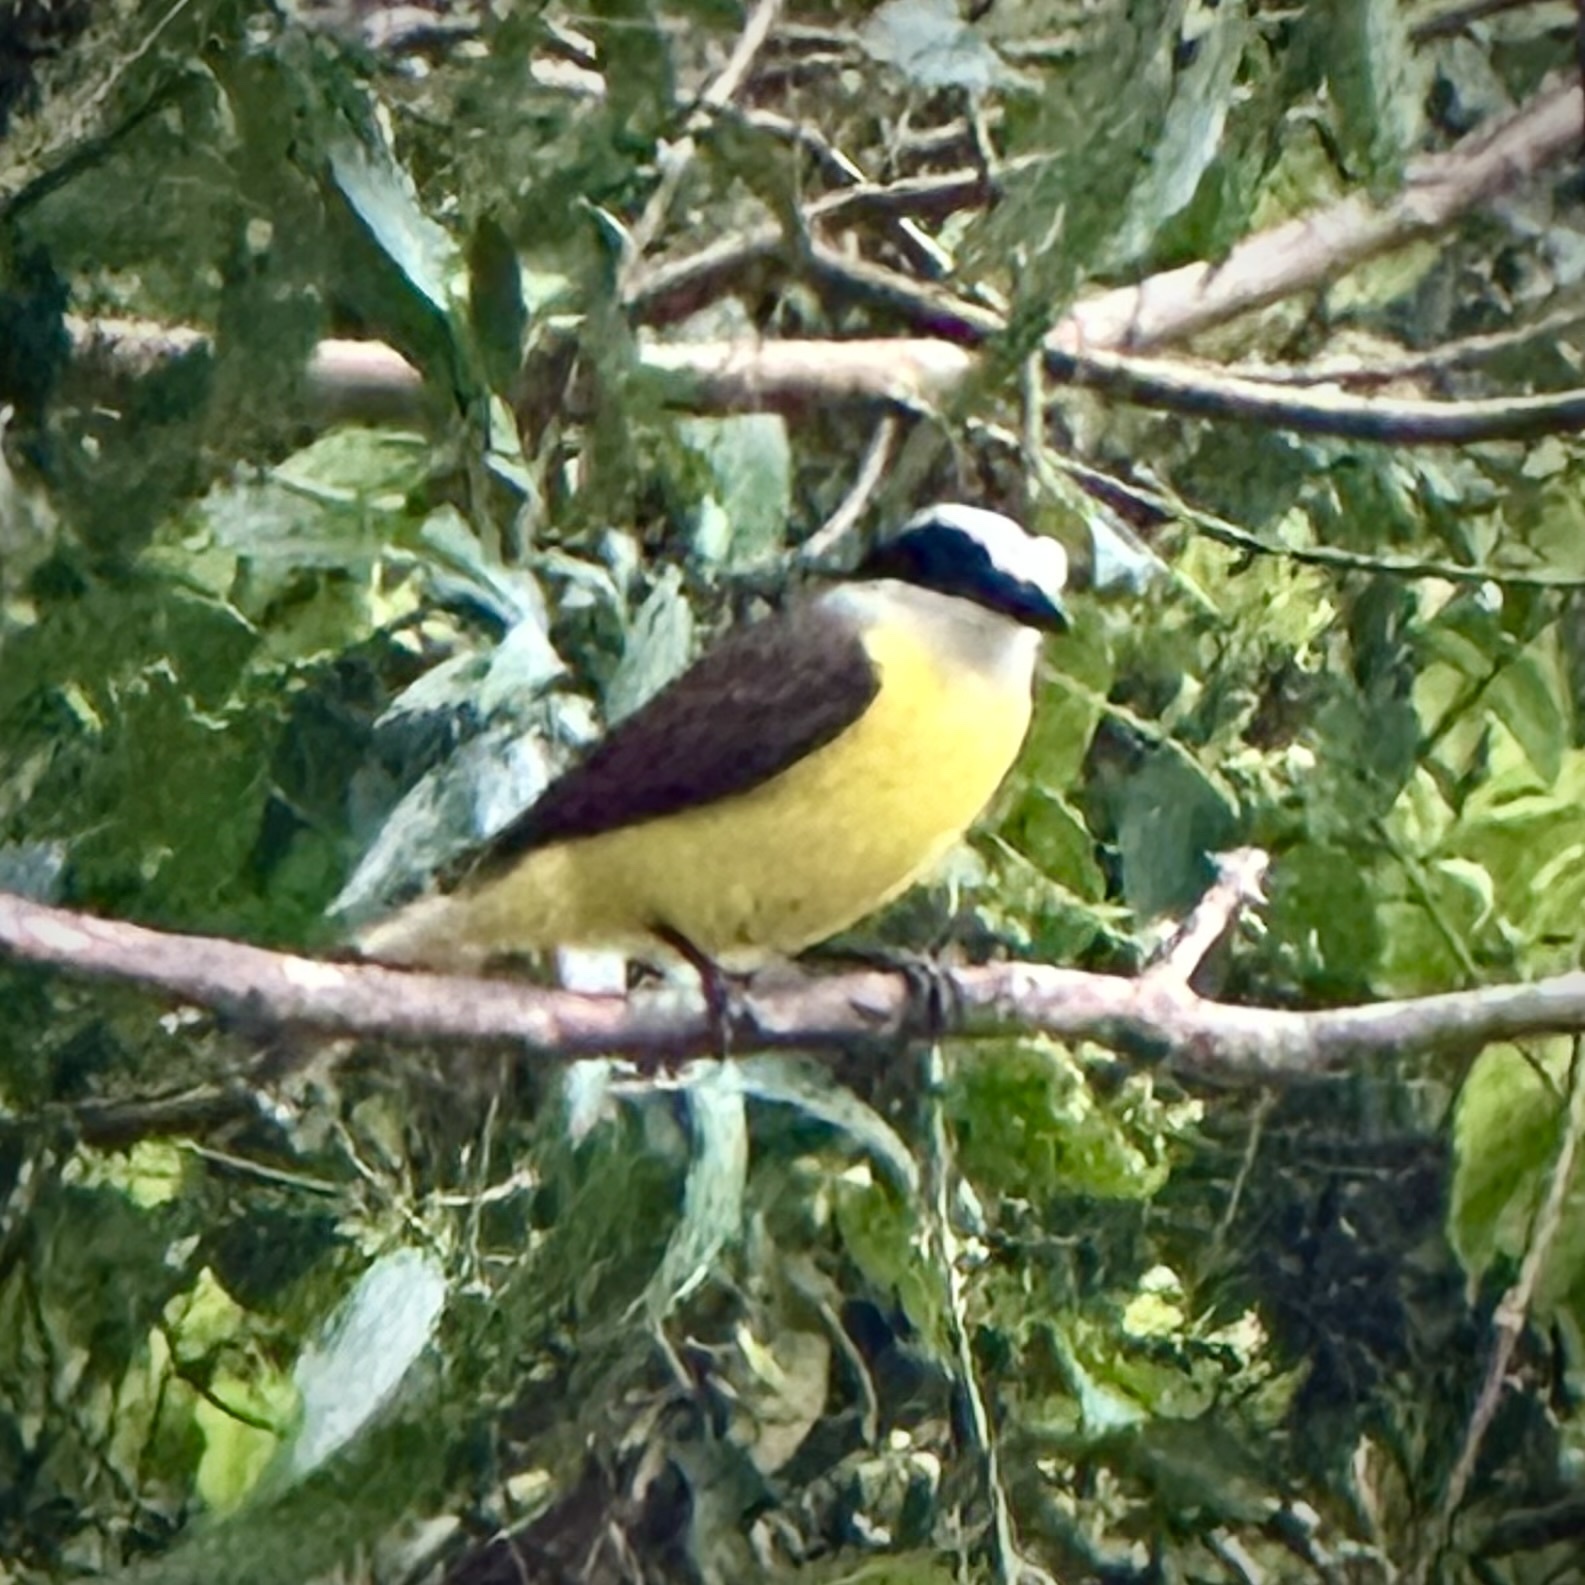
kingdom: Animalia
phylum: Chordata
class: Aves
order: Passeriformes
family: Tyrannidae
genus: Pitangus
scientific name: Pitangus sulphuratus
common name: Great kiskadee
